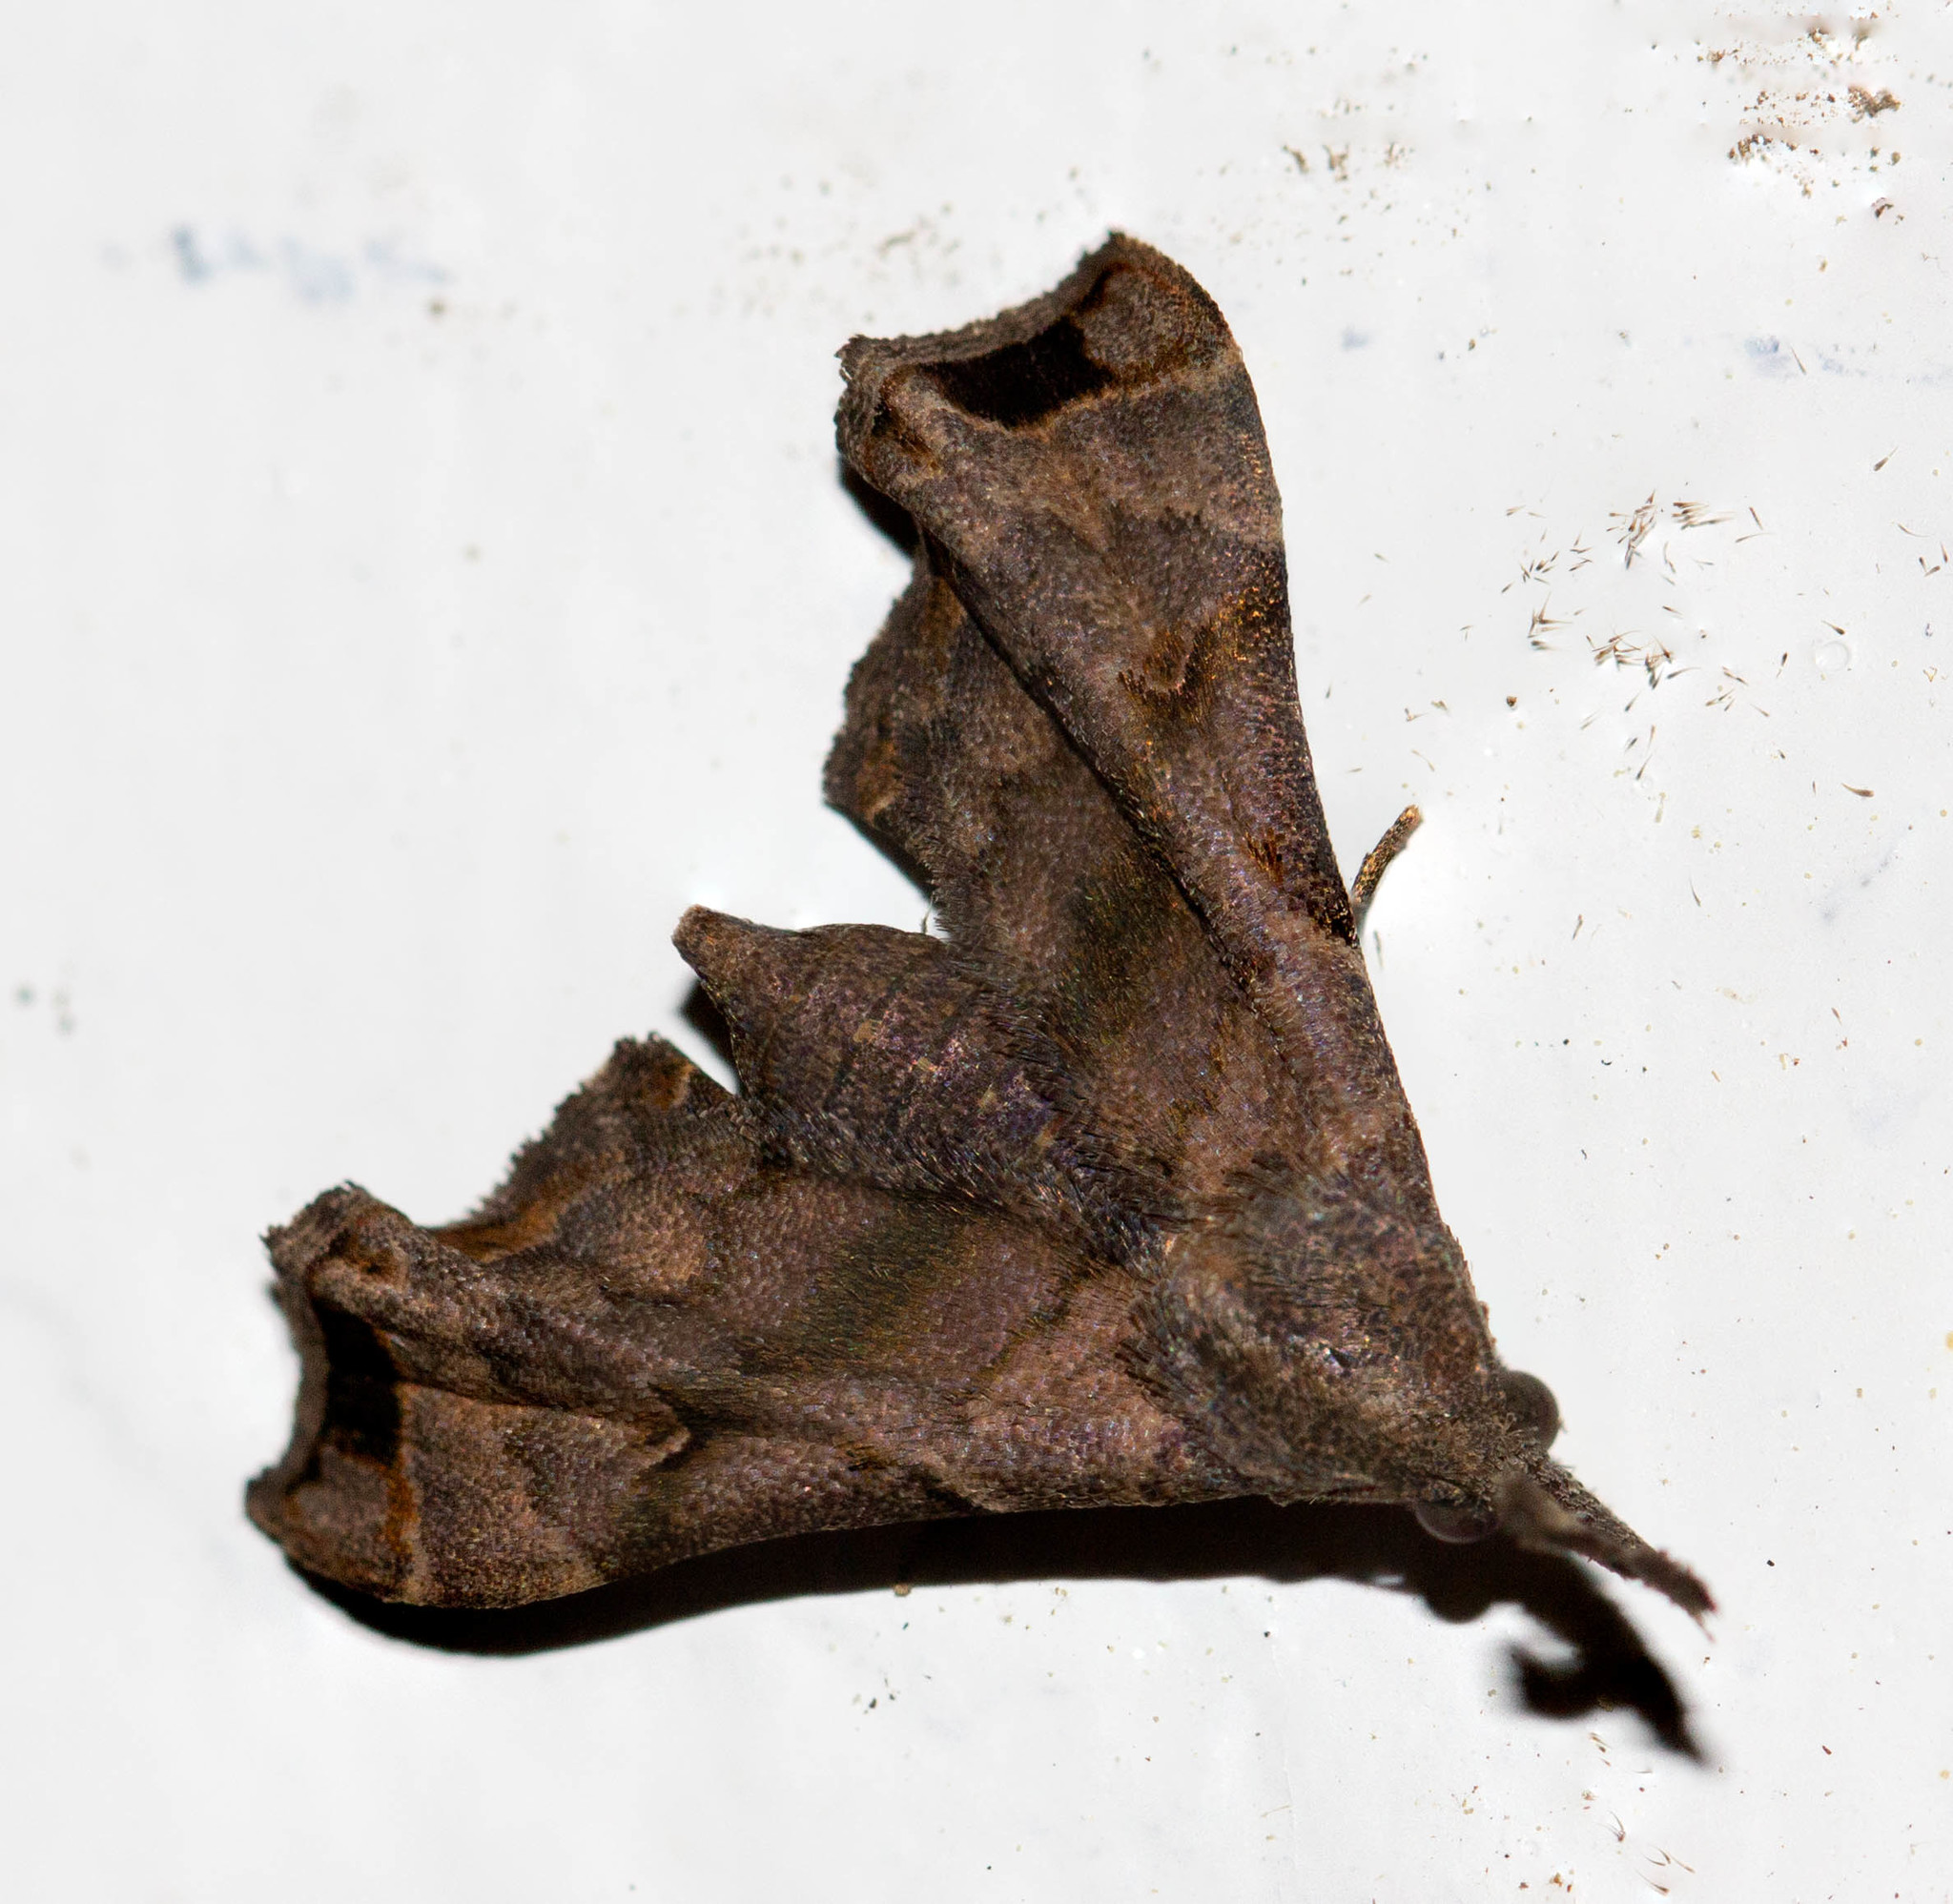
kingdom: Animalia
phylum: Arthropoda
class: Insecta
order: Lepidoptera
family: Erebidae
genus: Palthis
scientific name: Palthis asopialis
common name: Faint-spotted palthis moth
